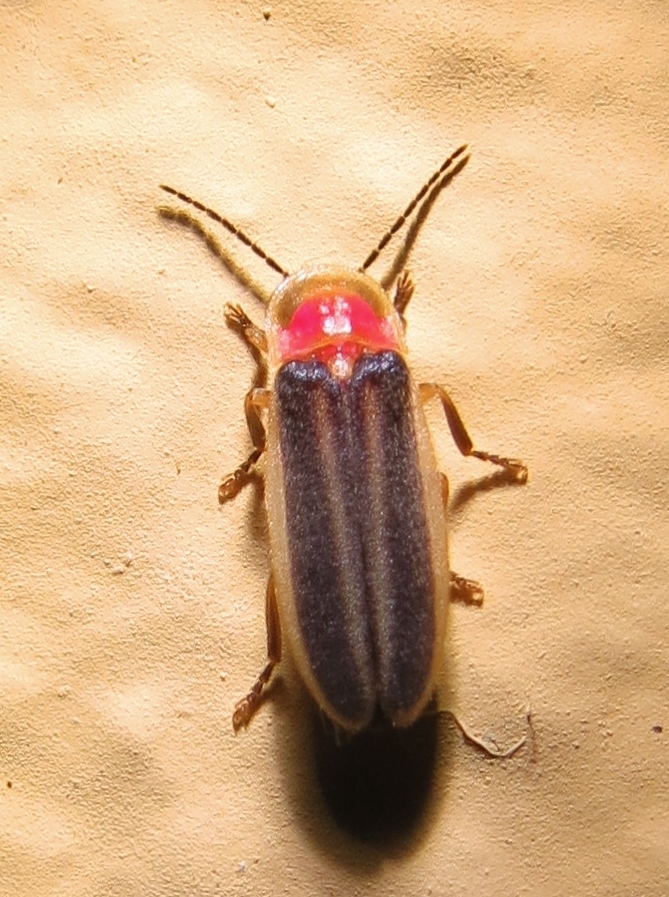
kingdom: Animalia
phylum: Arthropoda
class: Insecta
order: Coleoptera
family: Lampyridae
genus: Heterophotinus
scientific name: Heterophotinus vittatus
